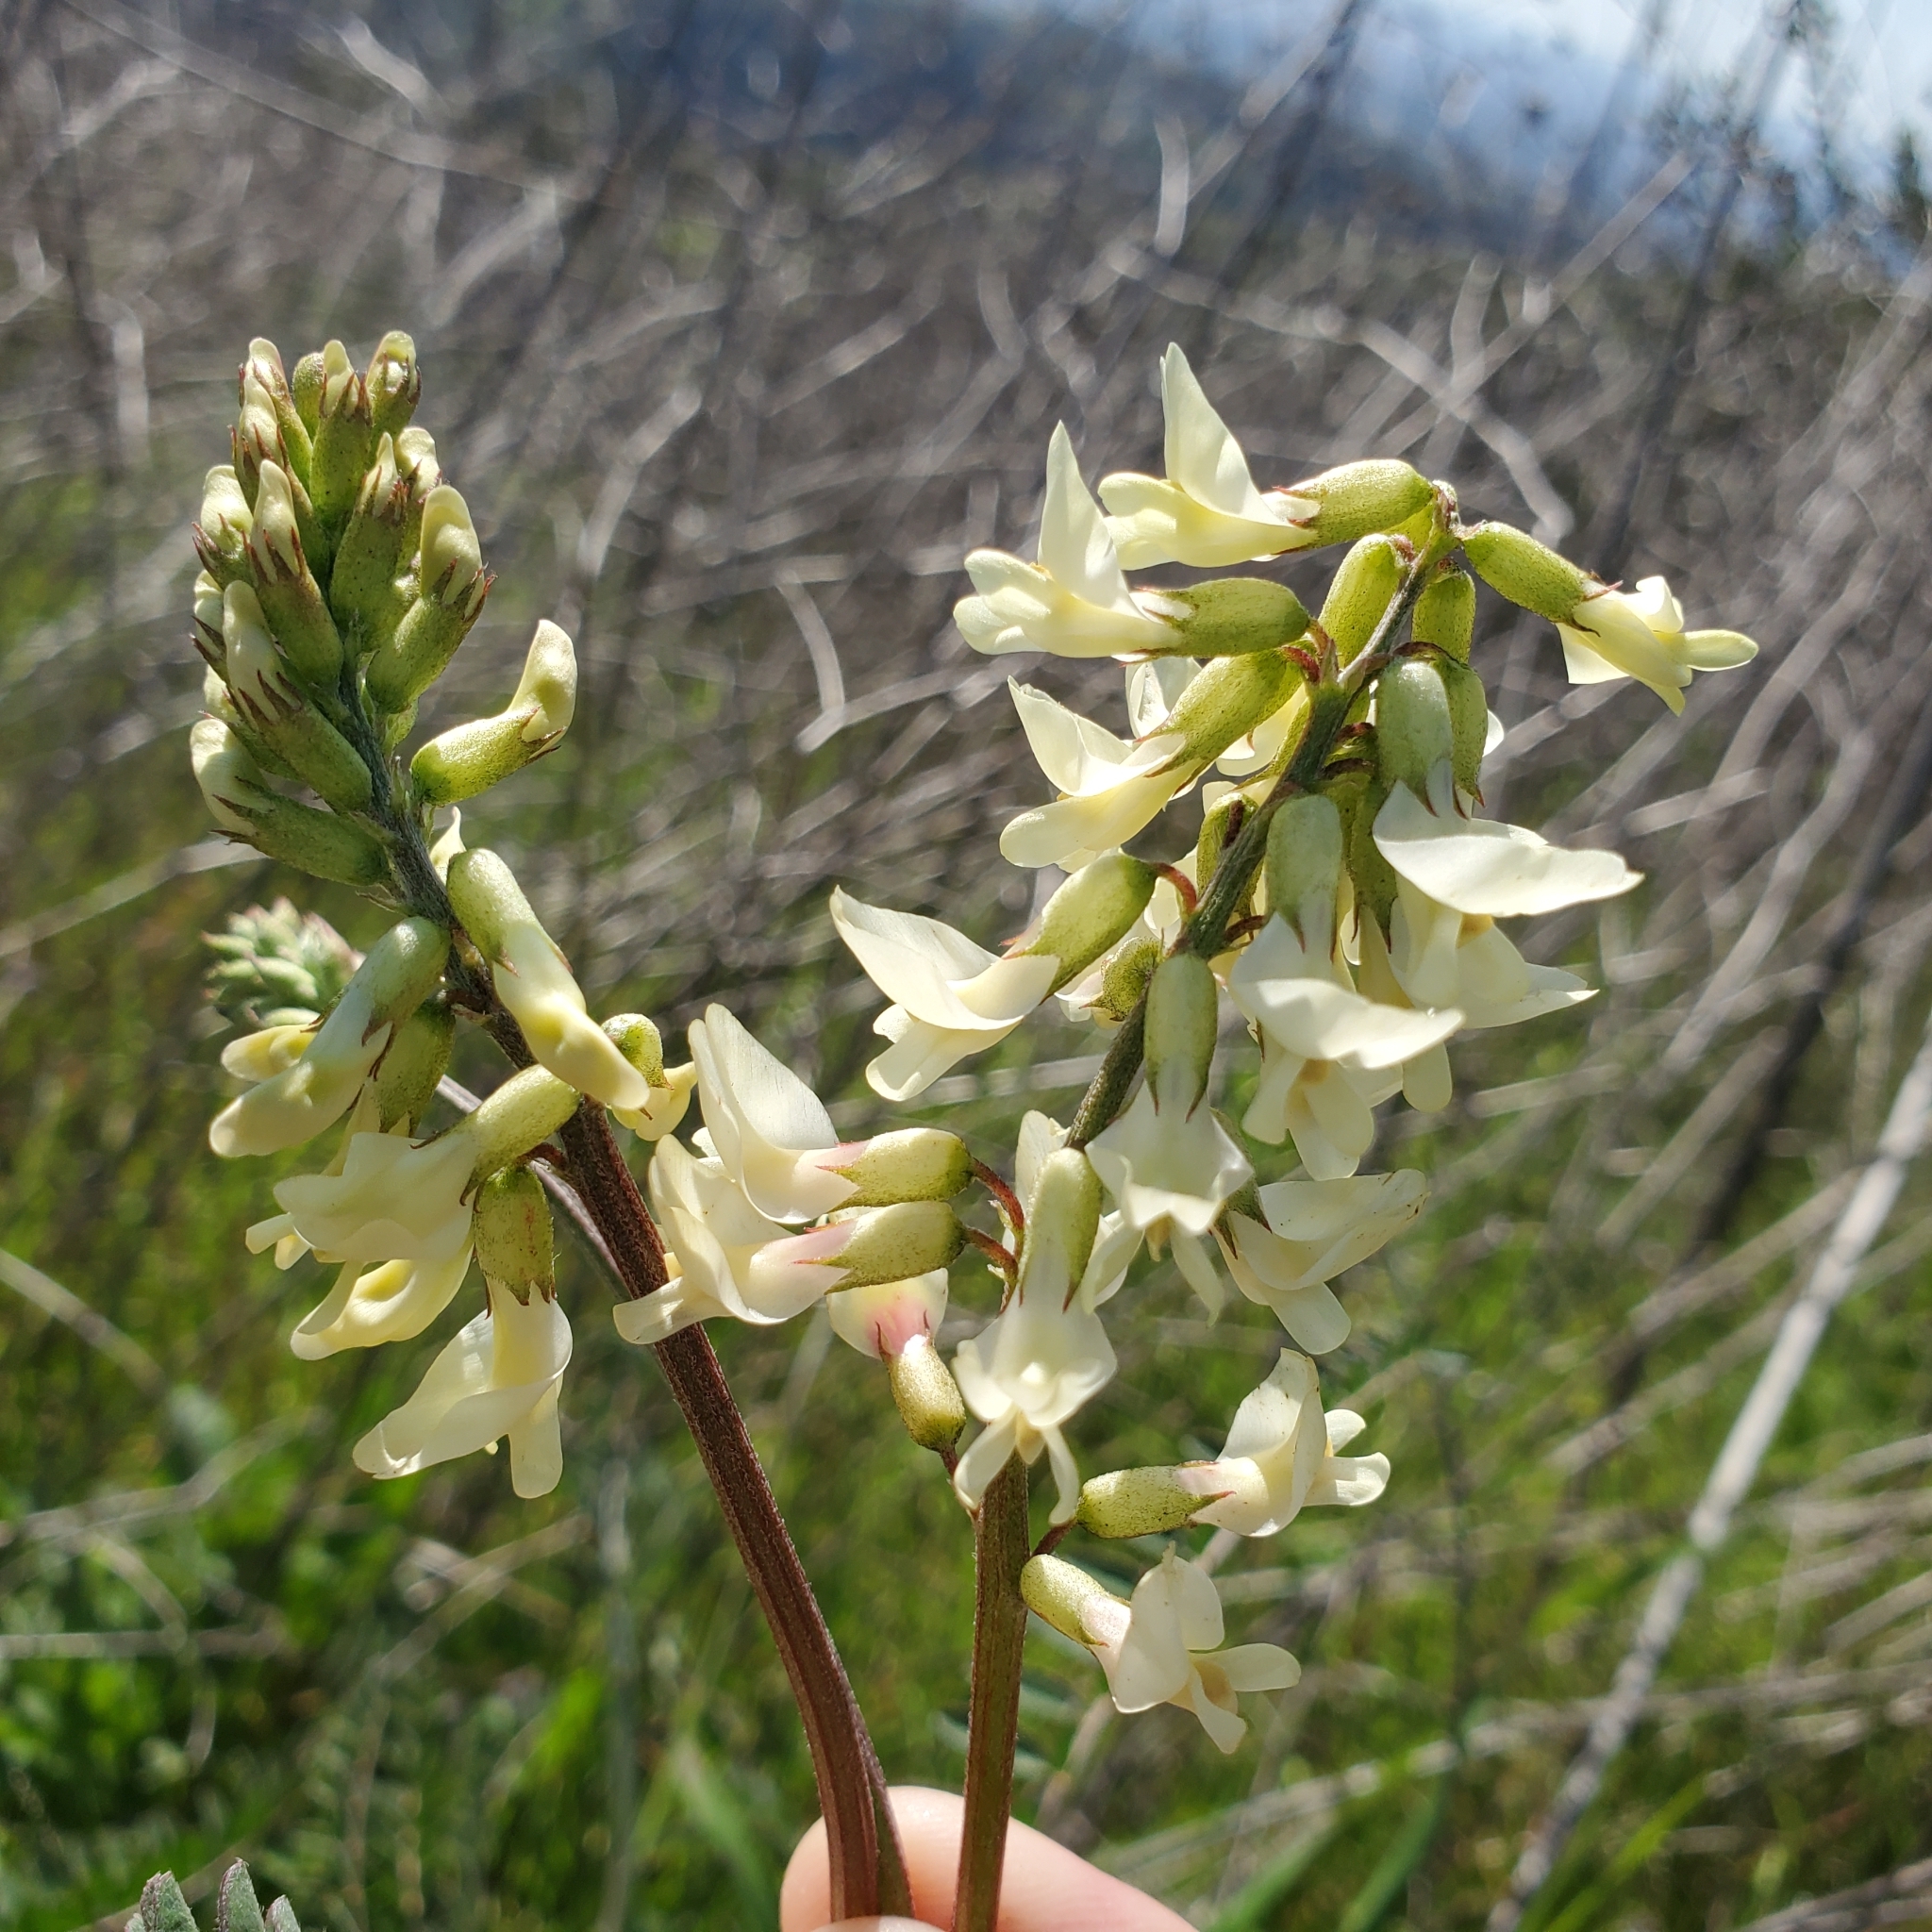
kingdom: Plantae
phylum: Tracheophyta
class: Magnoliopsida
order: Fabales
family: Fabaceae
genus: Astragalus
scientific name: Astragalus trichopodus
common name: Santa barbara milk-vetch
